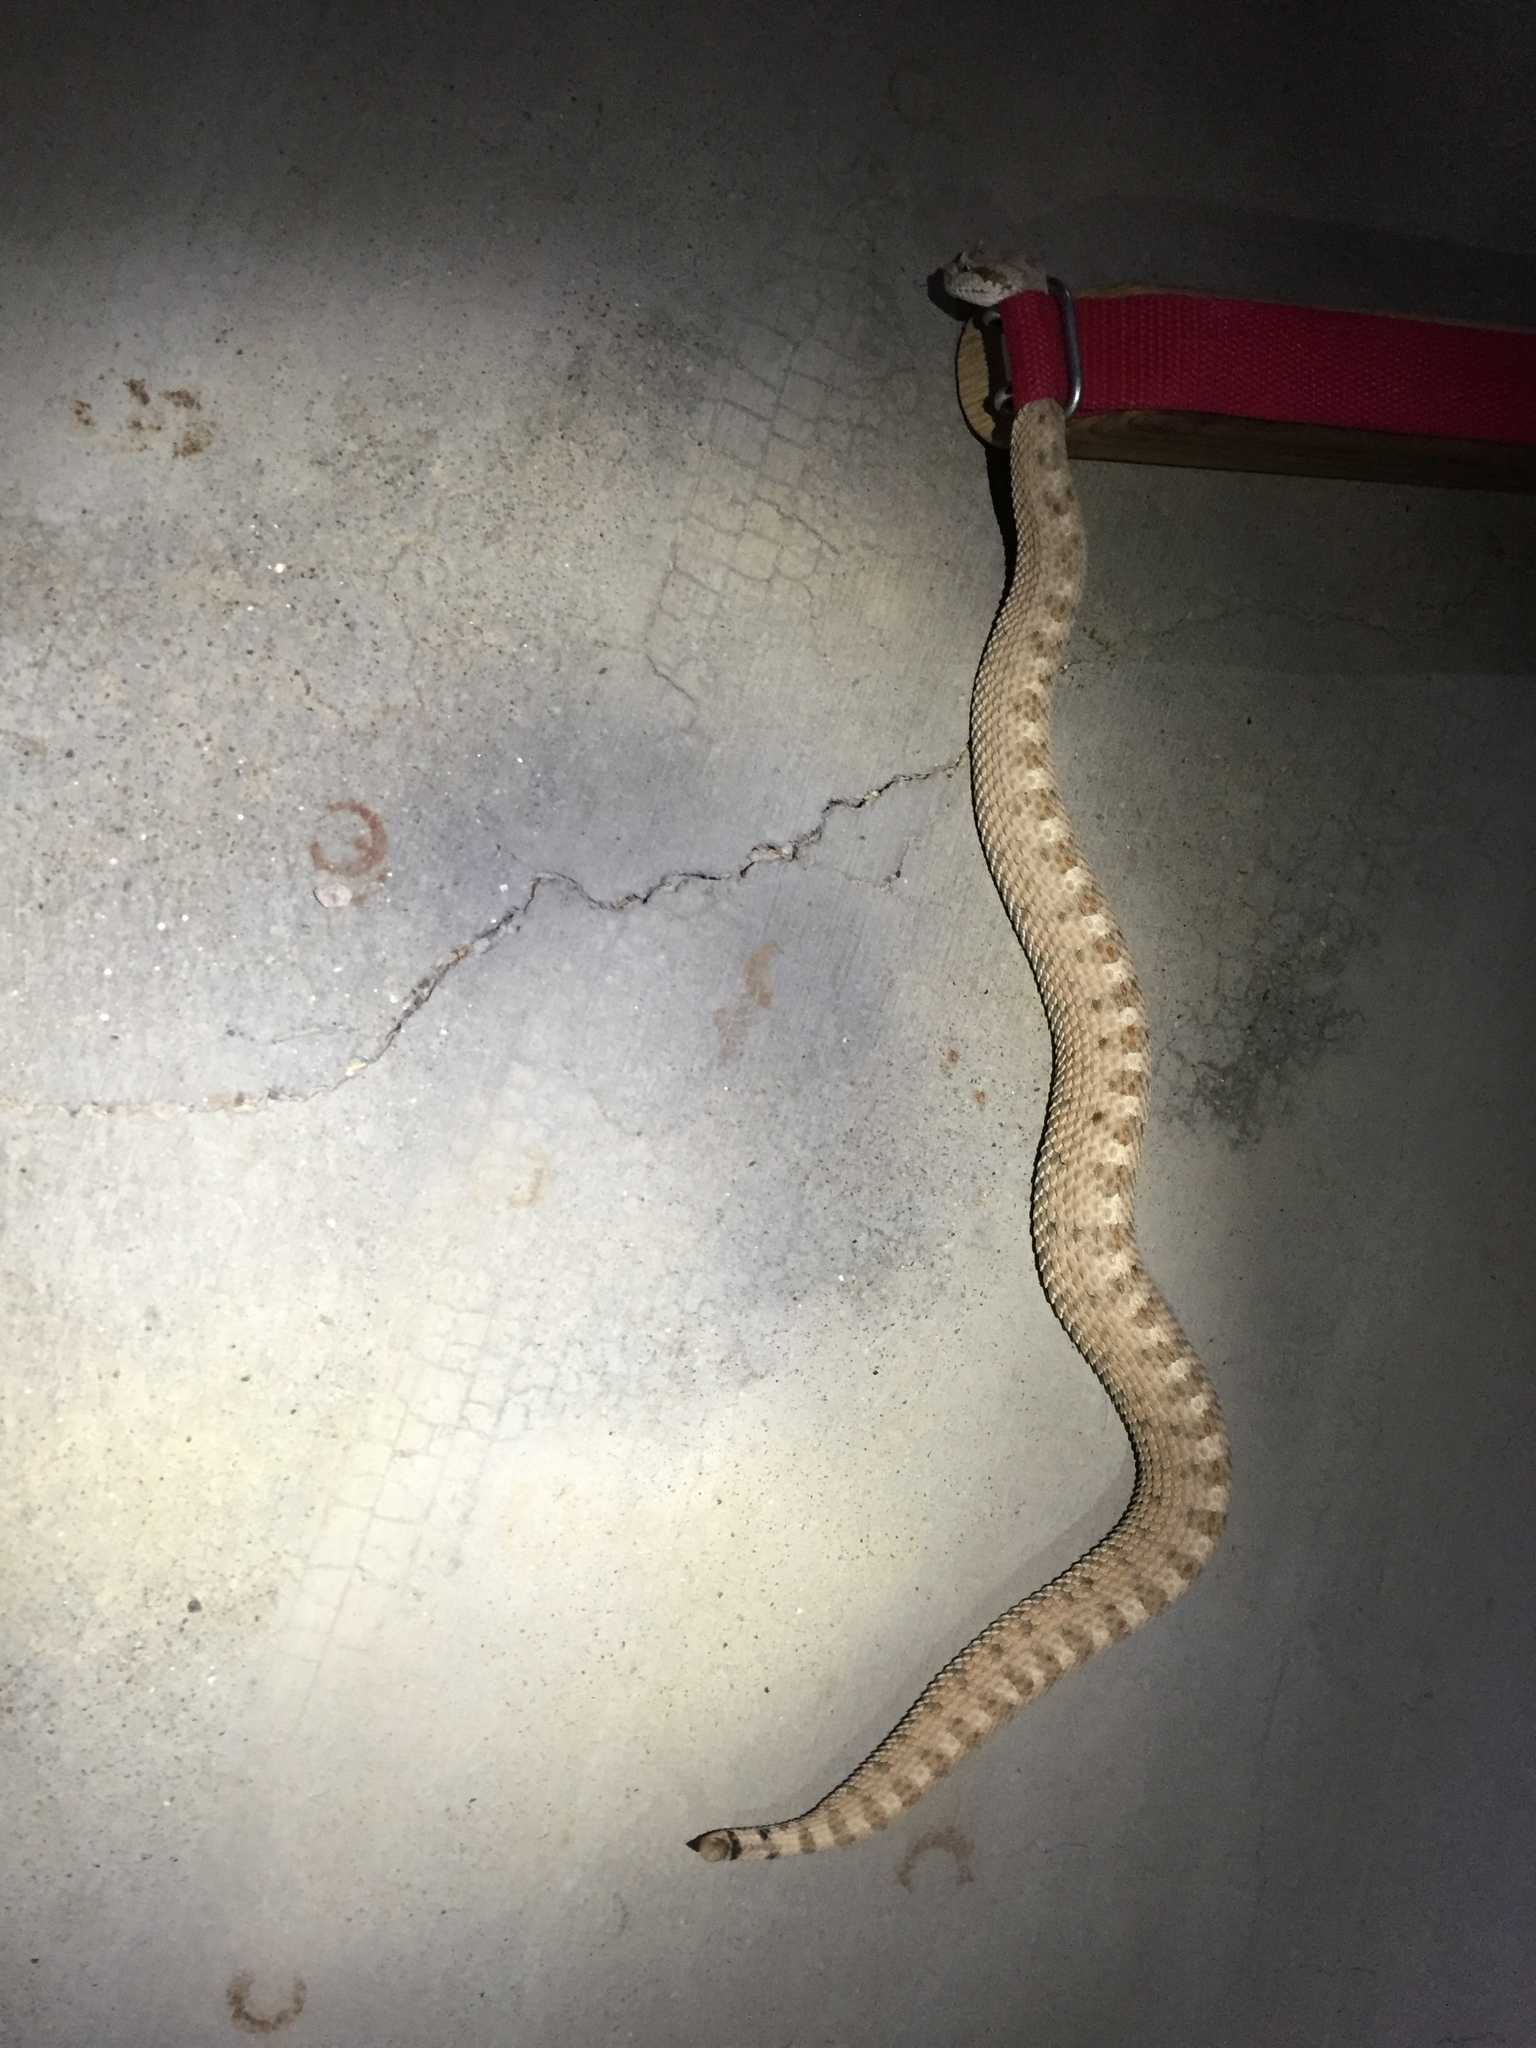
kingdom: Animalia
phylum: Chordata
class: Squamata
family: Viperidae
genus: Crotalus
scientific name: Crotalus cerastes
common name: Sidewinder
